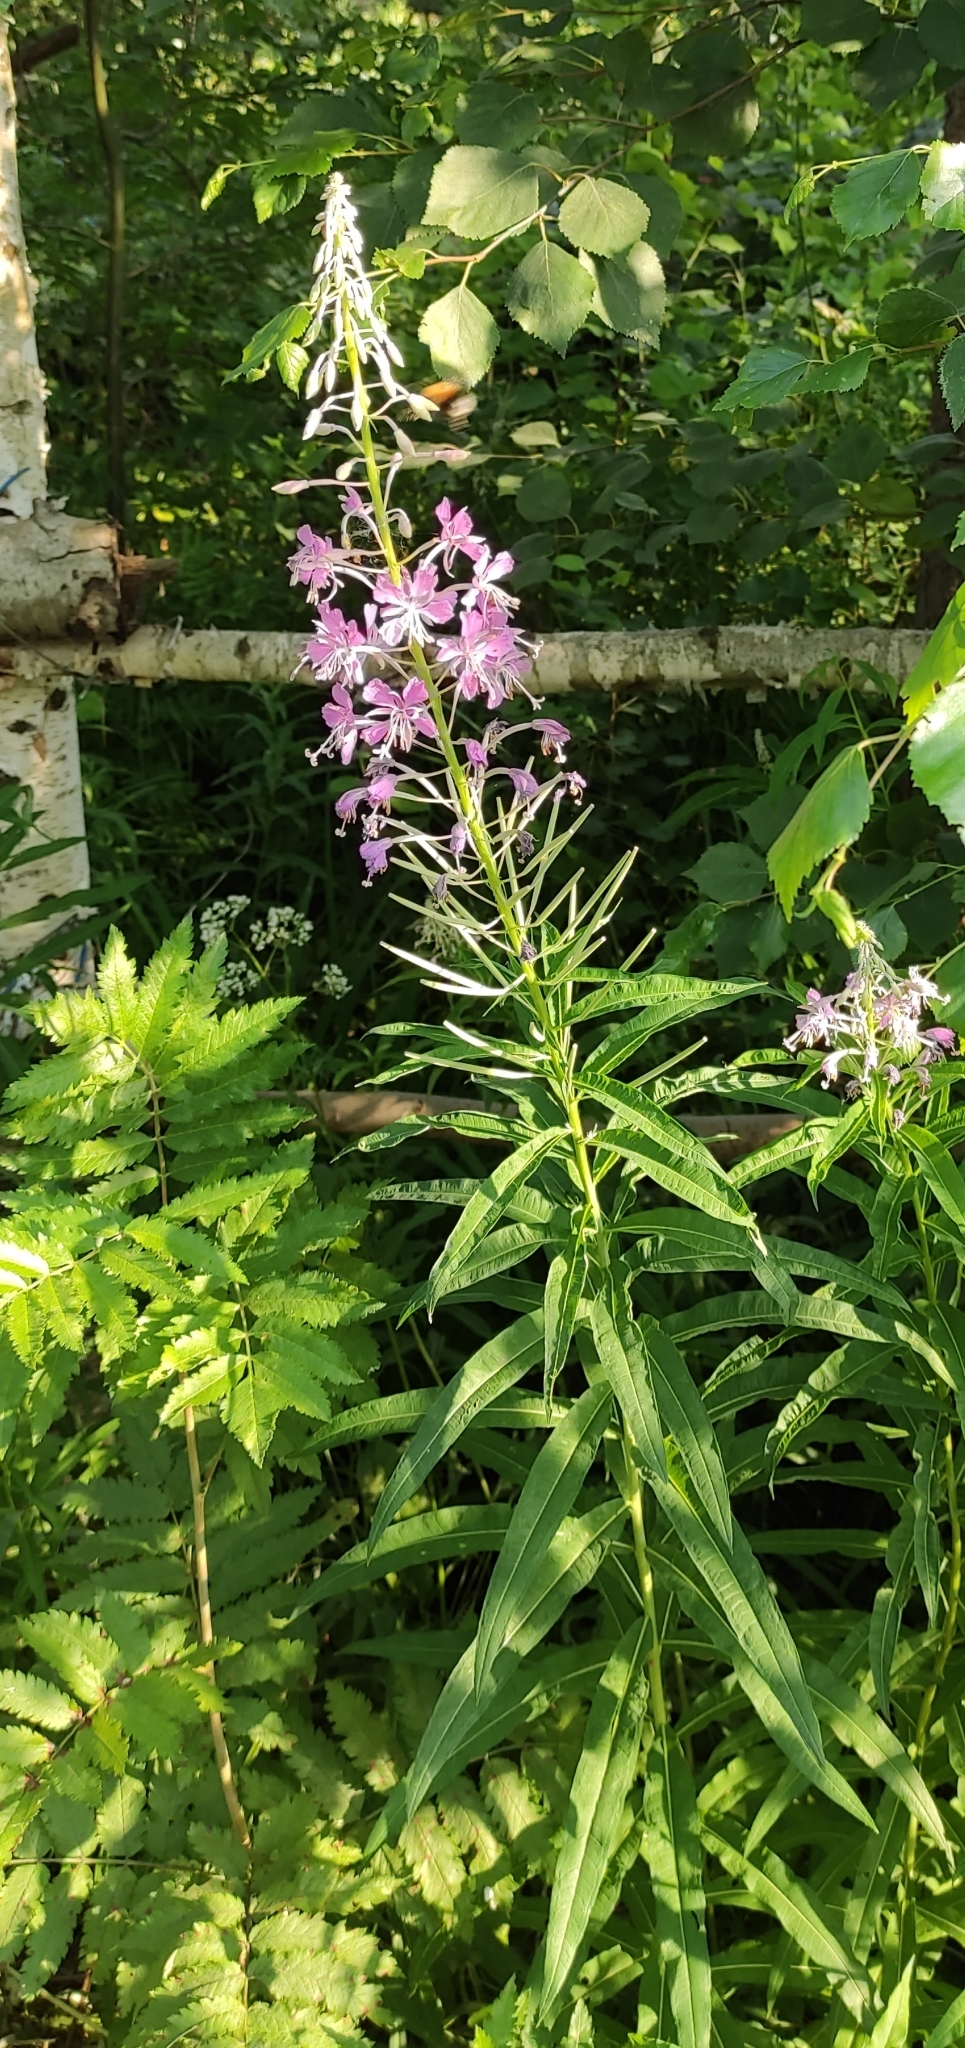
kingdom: Plantae
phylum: Tracheophyta
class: Magnoliopsida
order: Myrtales
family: Onagraceae
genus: Chamaenerion
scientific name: Chamaenerion angustifolium
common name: Fireweed
